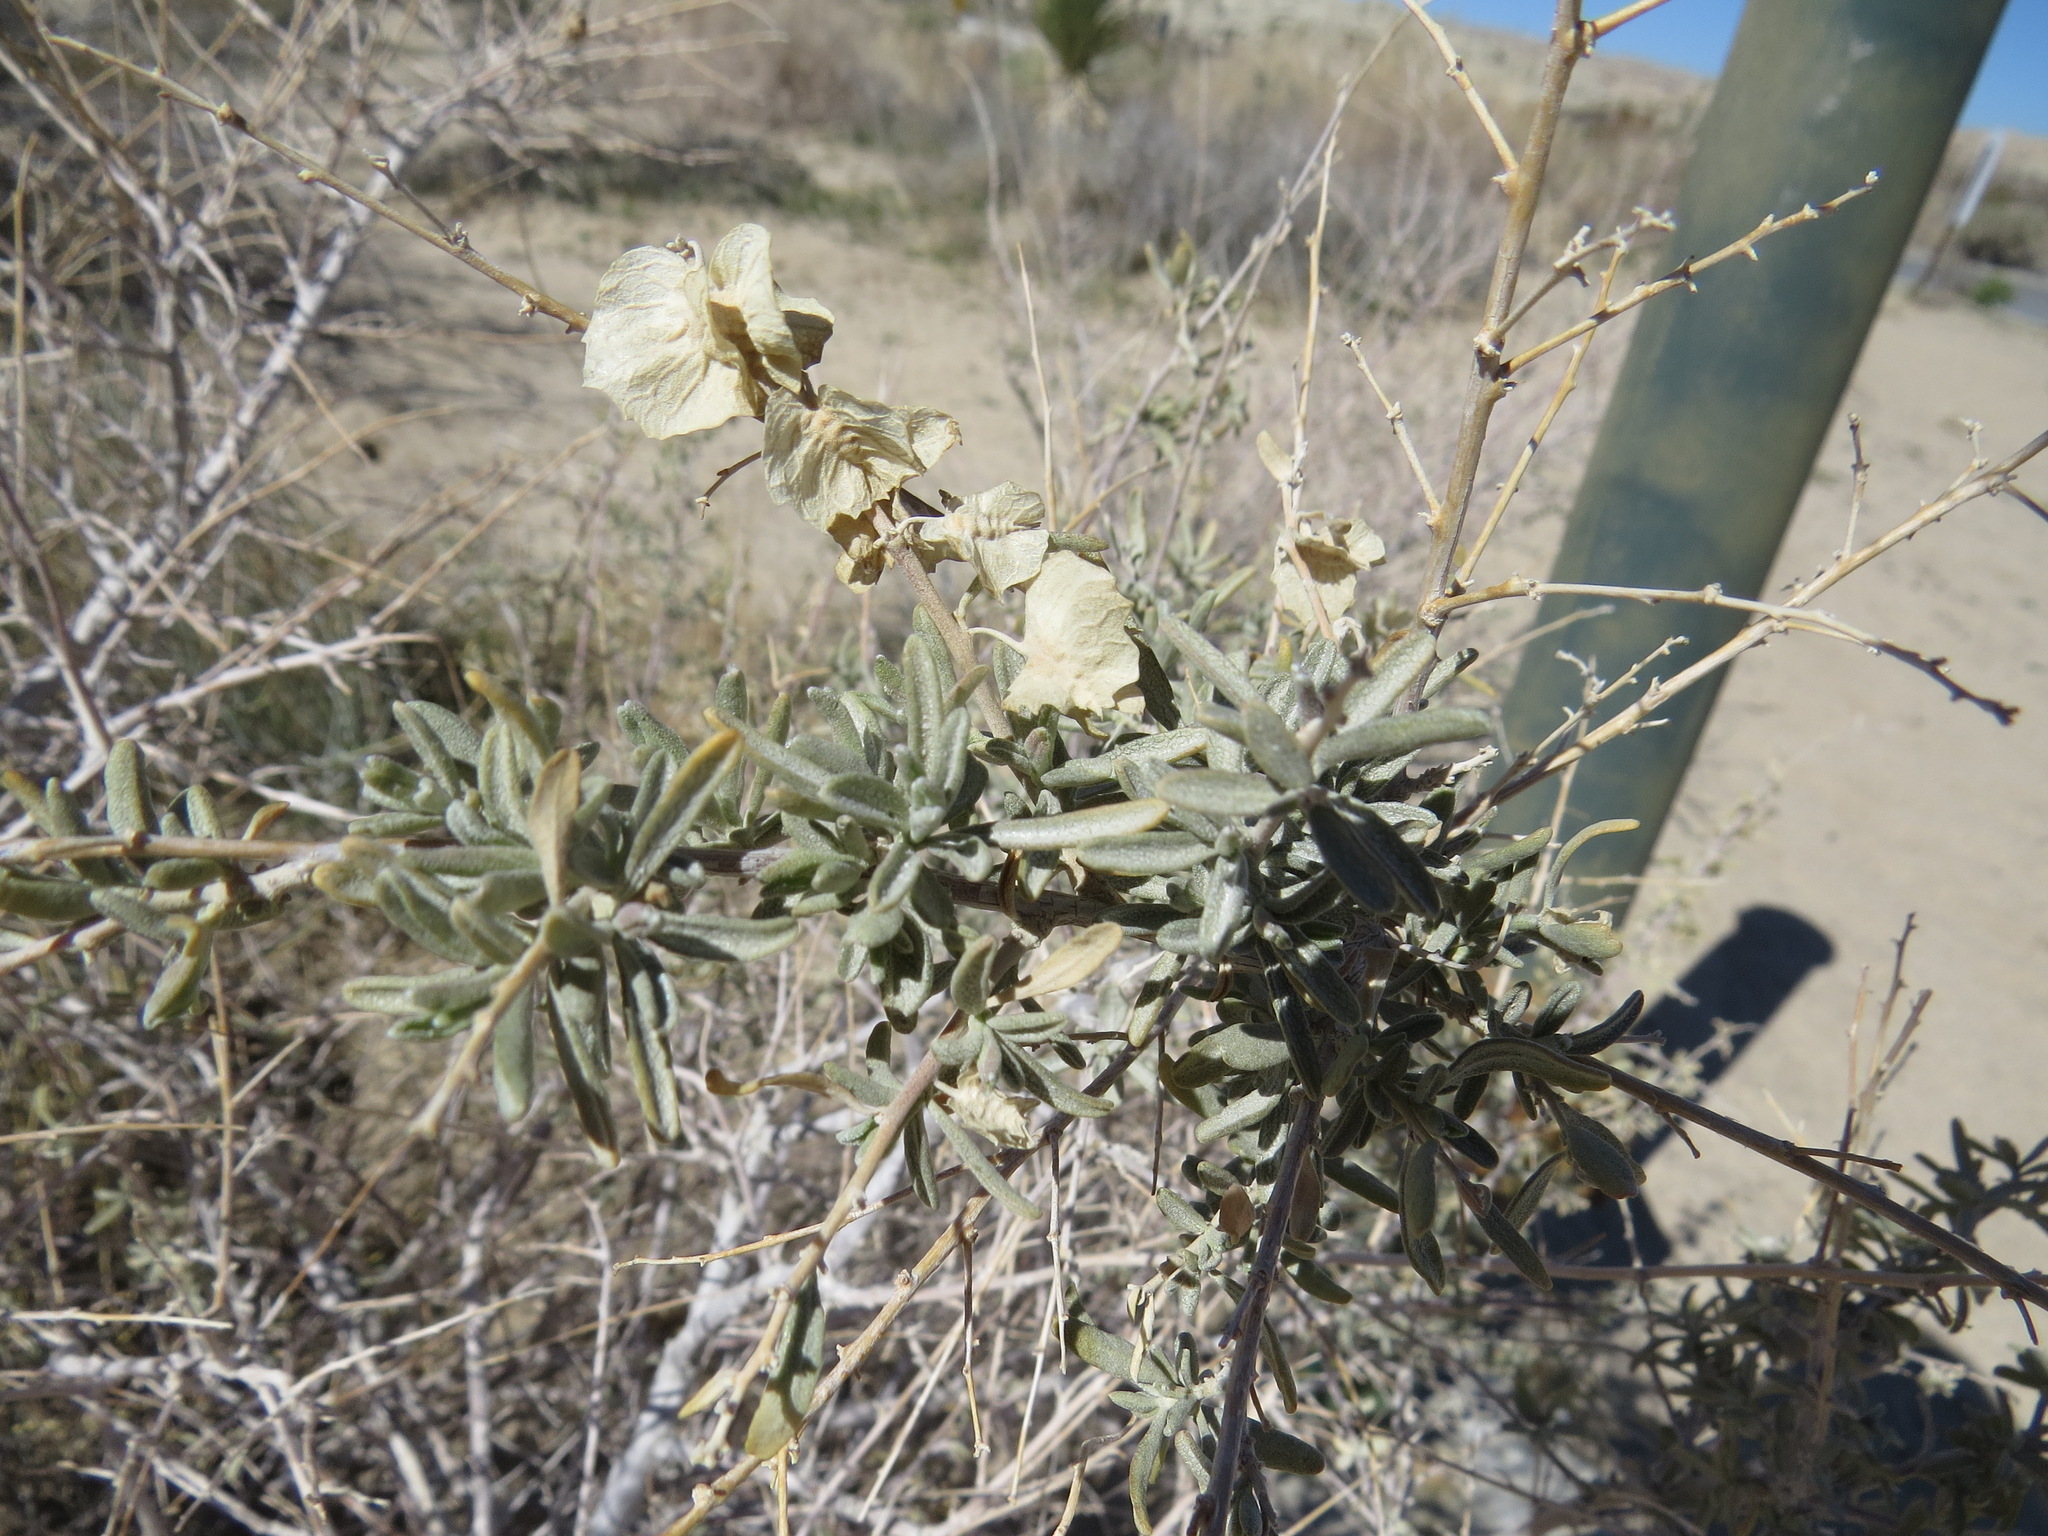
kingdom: Plantae
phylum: Tracheophyta
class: Magnoliopsida
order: Caryophyllales
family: Amaranthaceae
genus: Atriplex
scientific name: Atriplex canescens
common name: Four-wing saltbush
